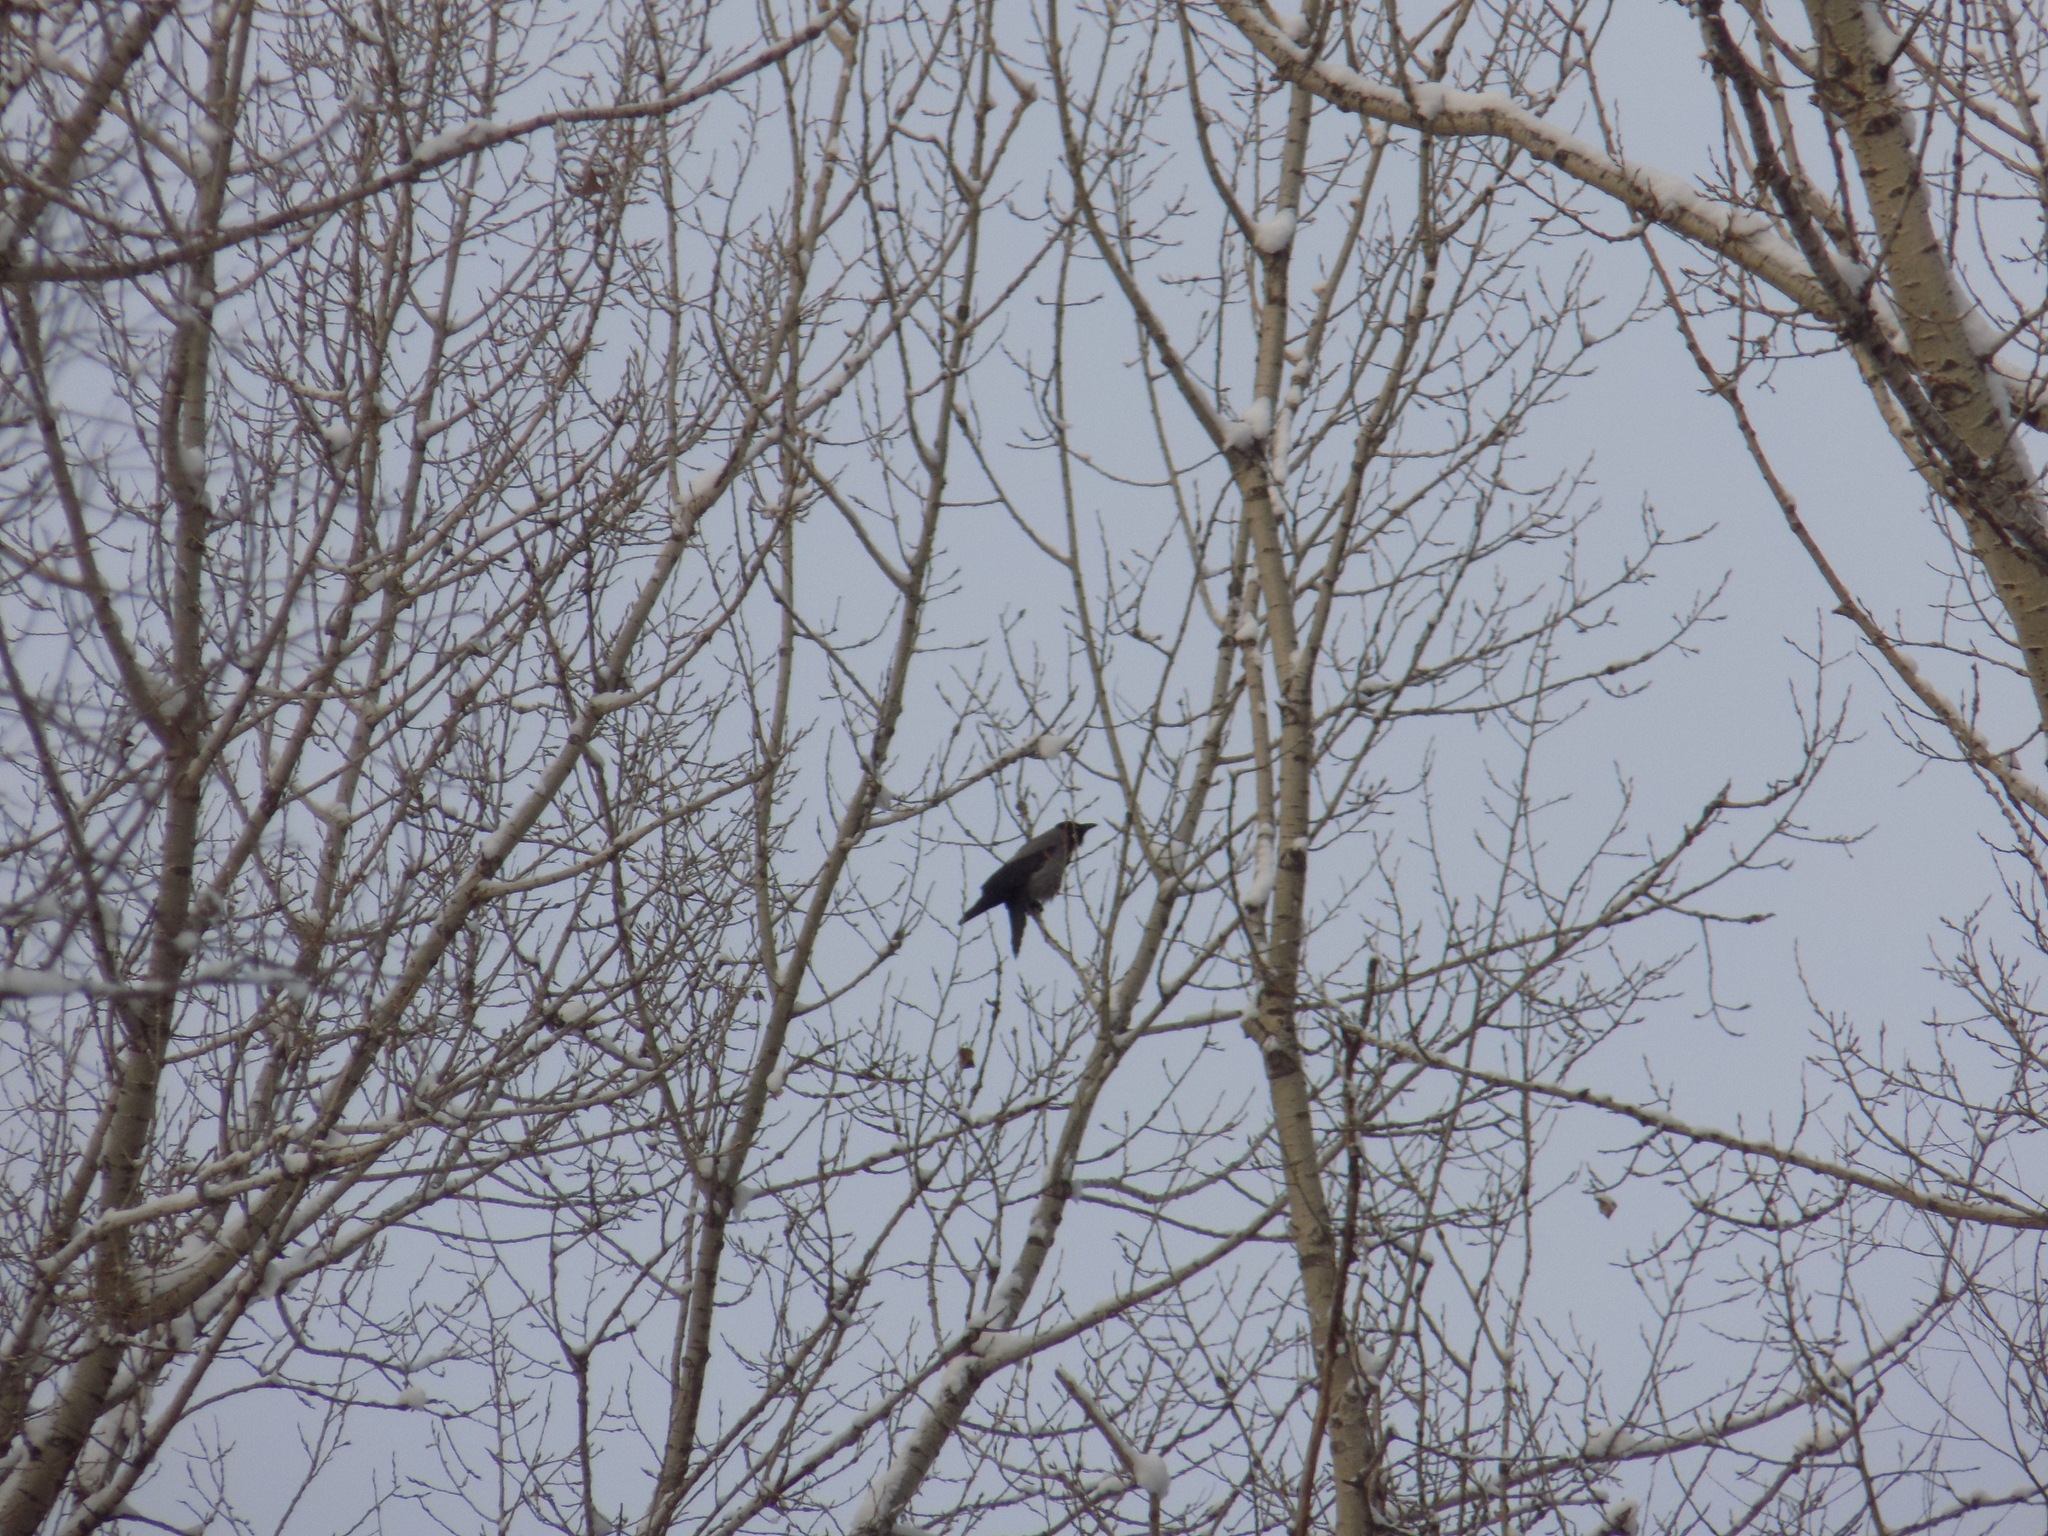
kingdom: Animalia
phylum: Chordata
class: Aves
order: Passeriformes
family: Corvidae
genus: Corvus
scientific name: Corvus cornix
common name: Hooded crow
